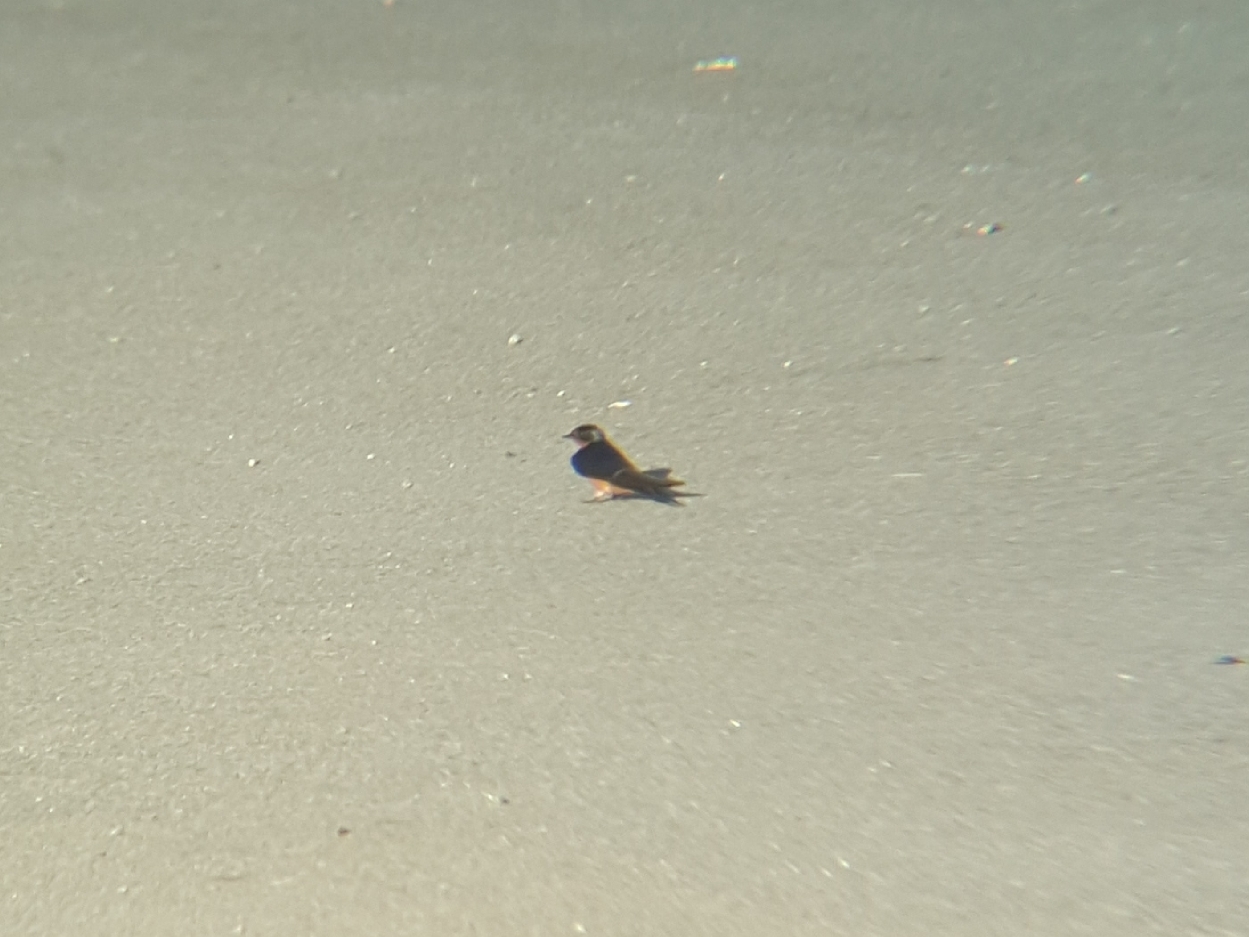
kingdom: Animalia
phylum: Chordata
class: Aves
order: Passeriformes
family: Hirundinidae
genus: Hirundo
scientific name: Hirundo rustica
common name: Barn swallow
